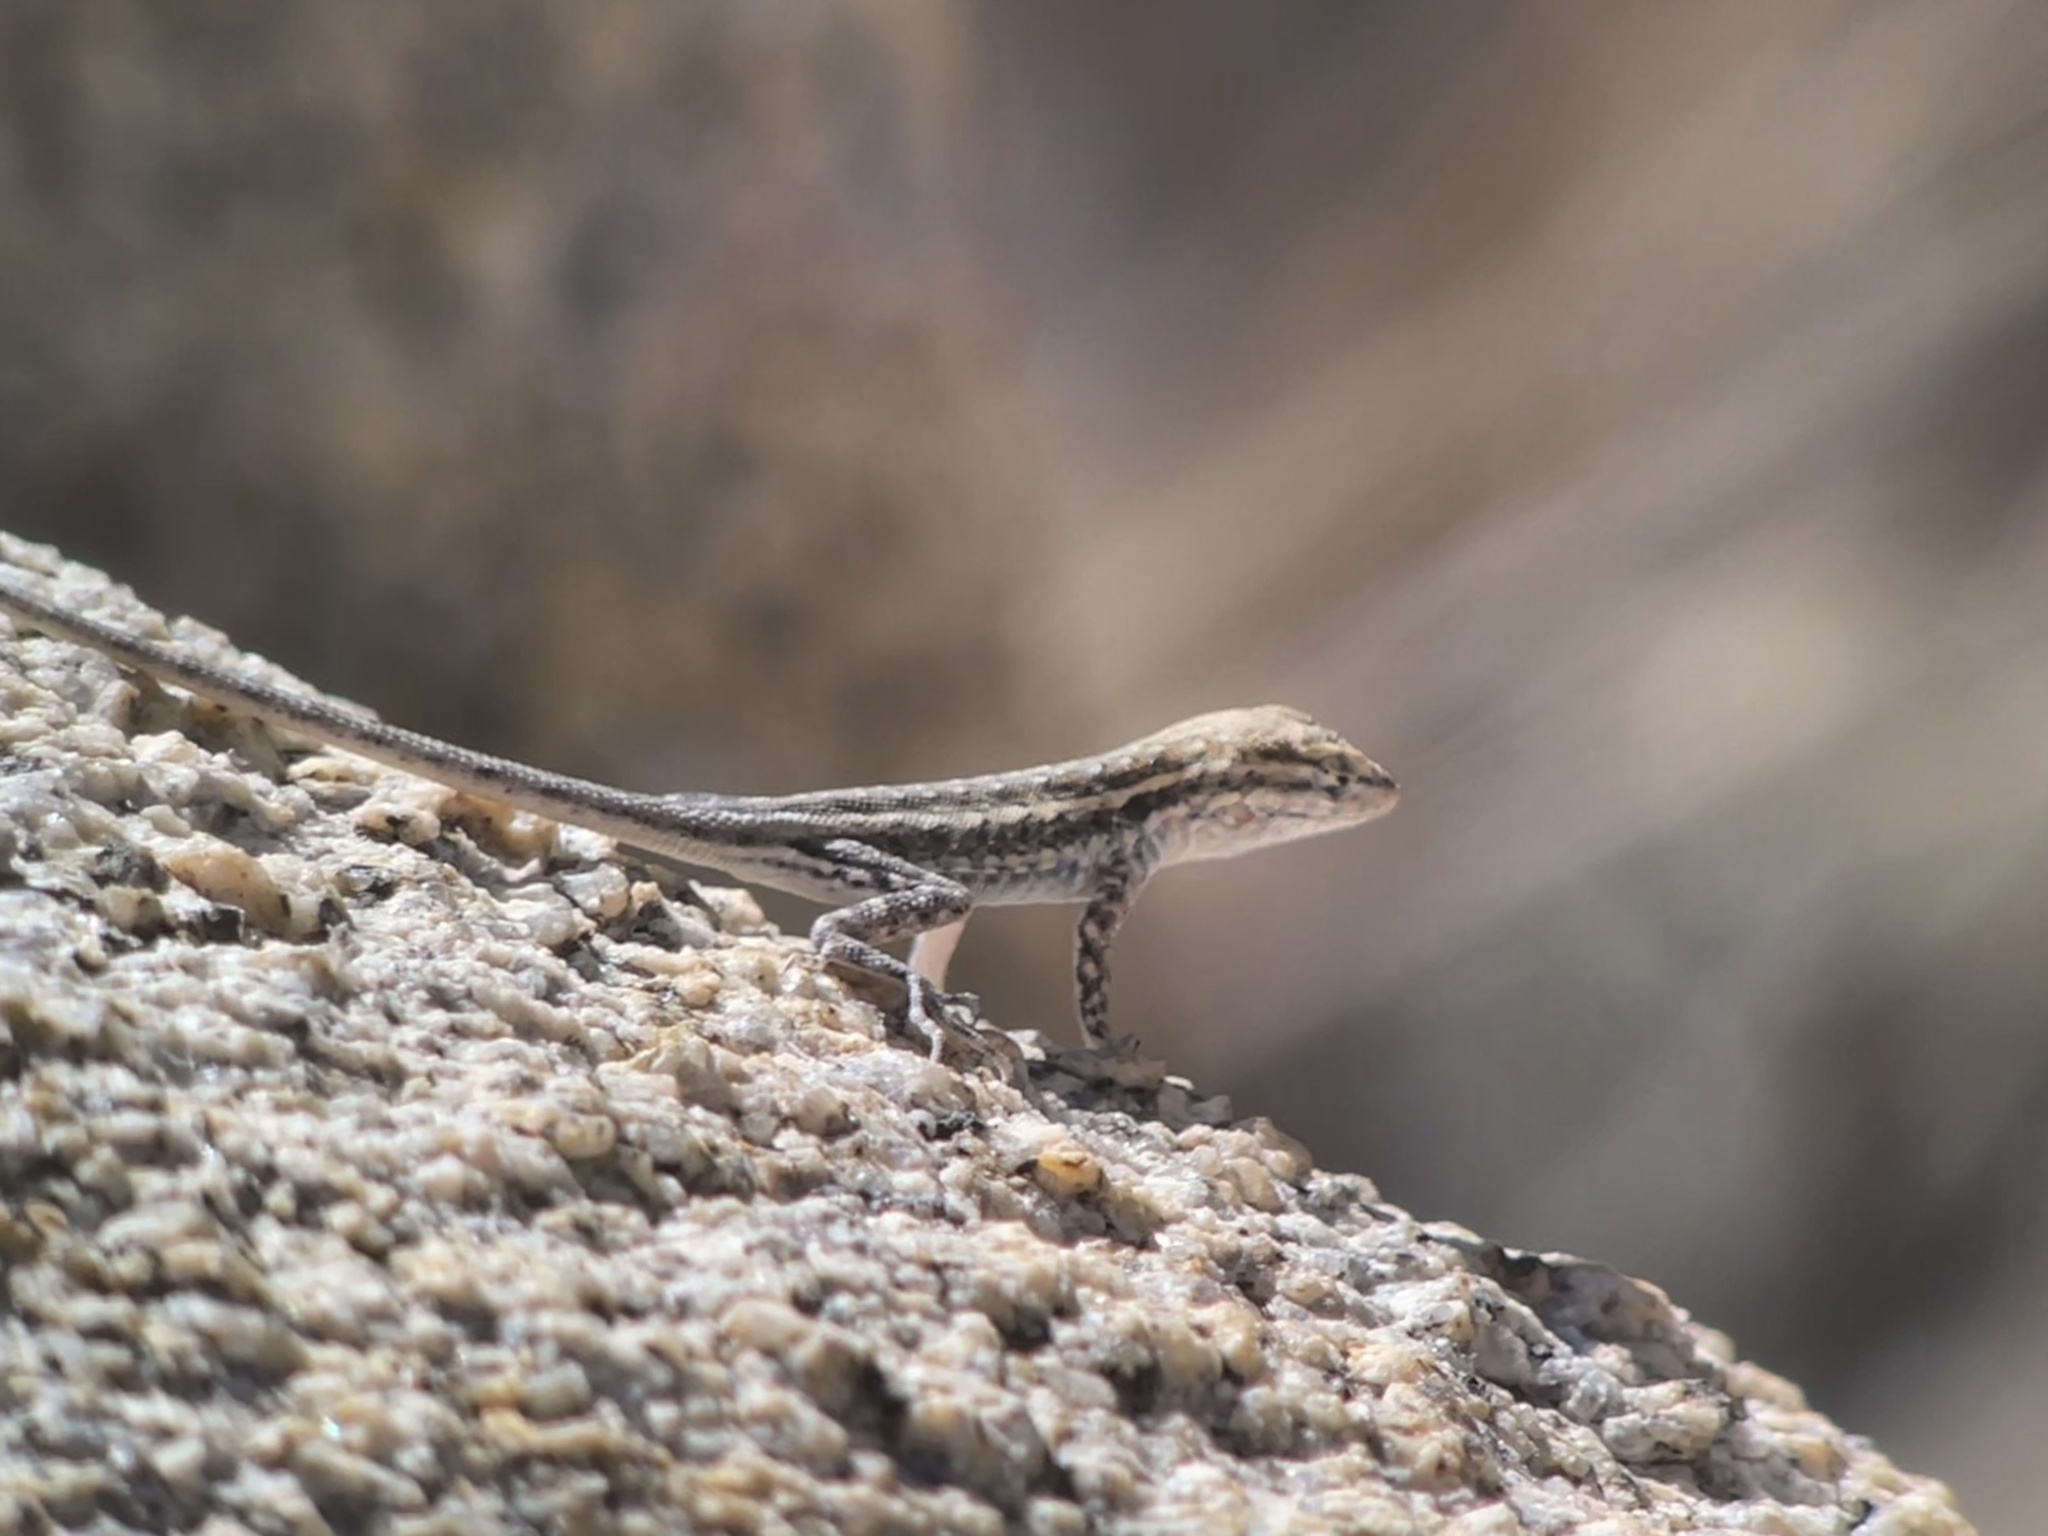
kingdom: Animalia
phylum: Chordata
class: Squamata
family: Phrynosomatidae
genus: Uta
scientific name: Uta stansburiana
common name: Side-blotched lizard
